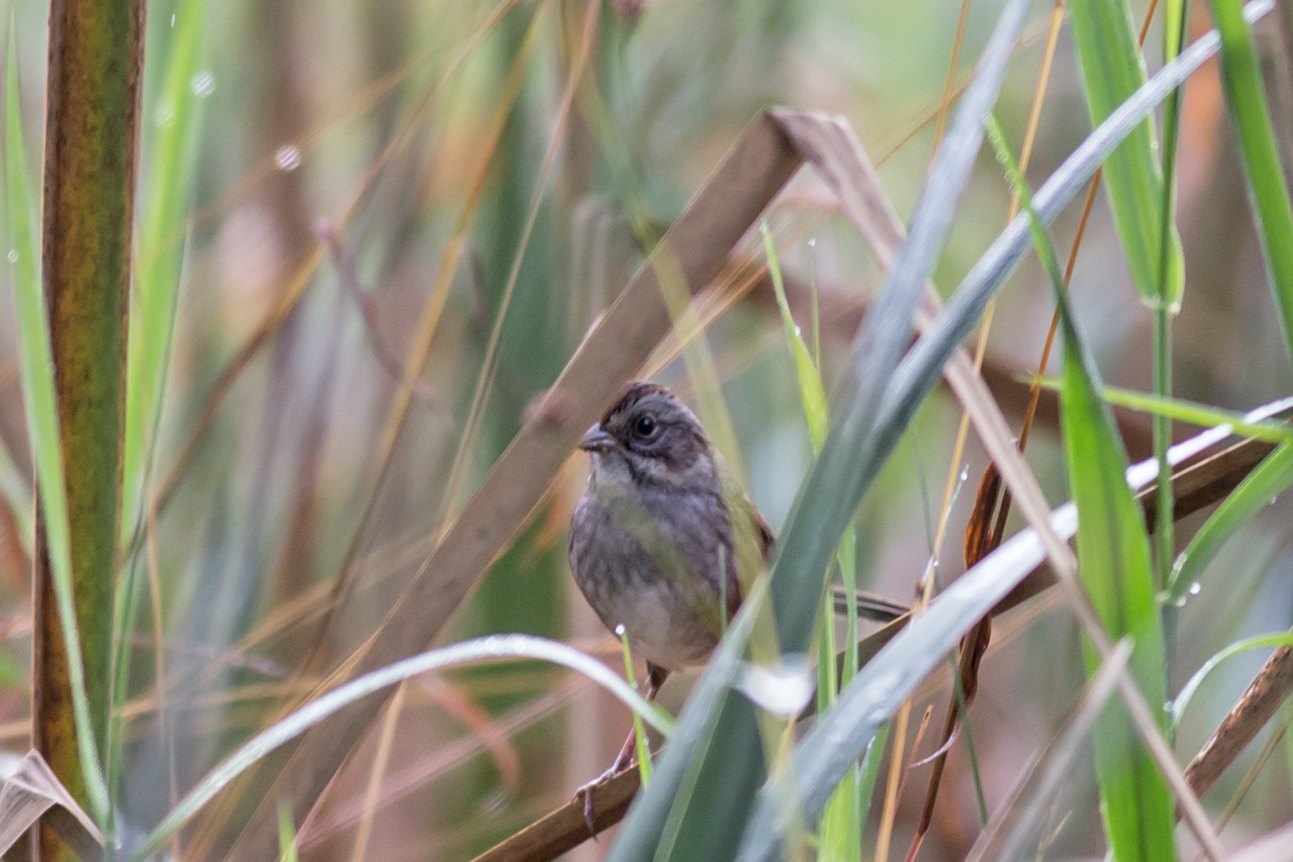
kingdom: Animalia
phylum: Chordata
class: Aves
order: Passeriformes
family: Passerellidae
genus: Melospiza
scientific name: Melospiza georgiana
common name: Swamp sparrow
